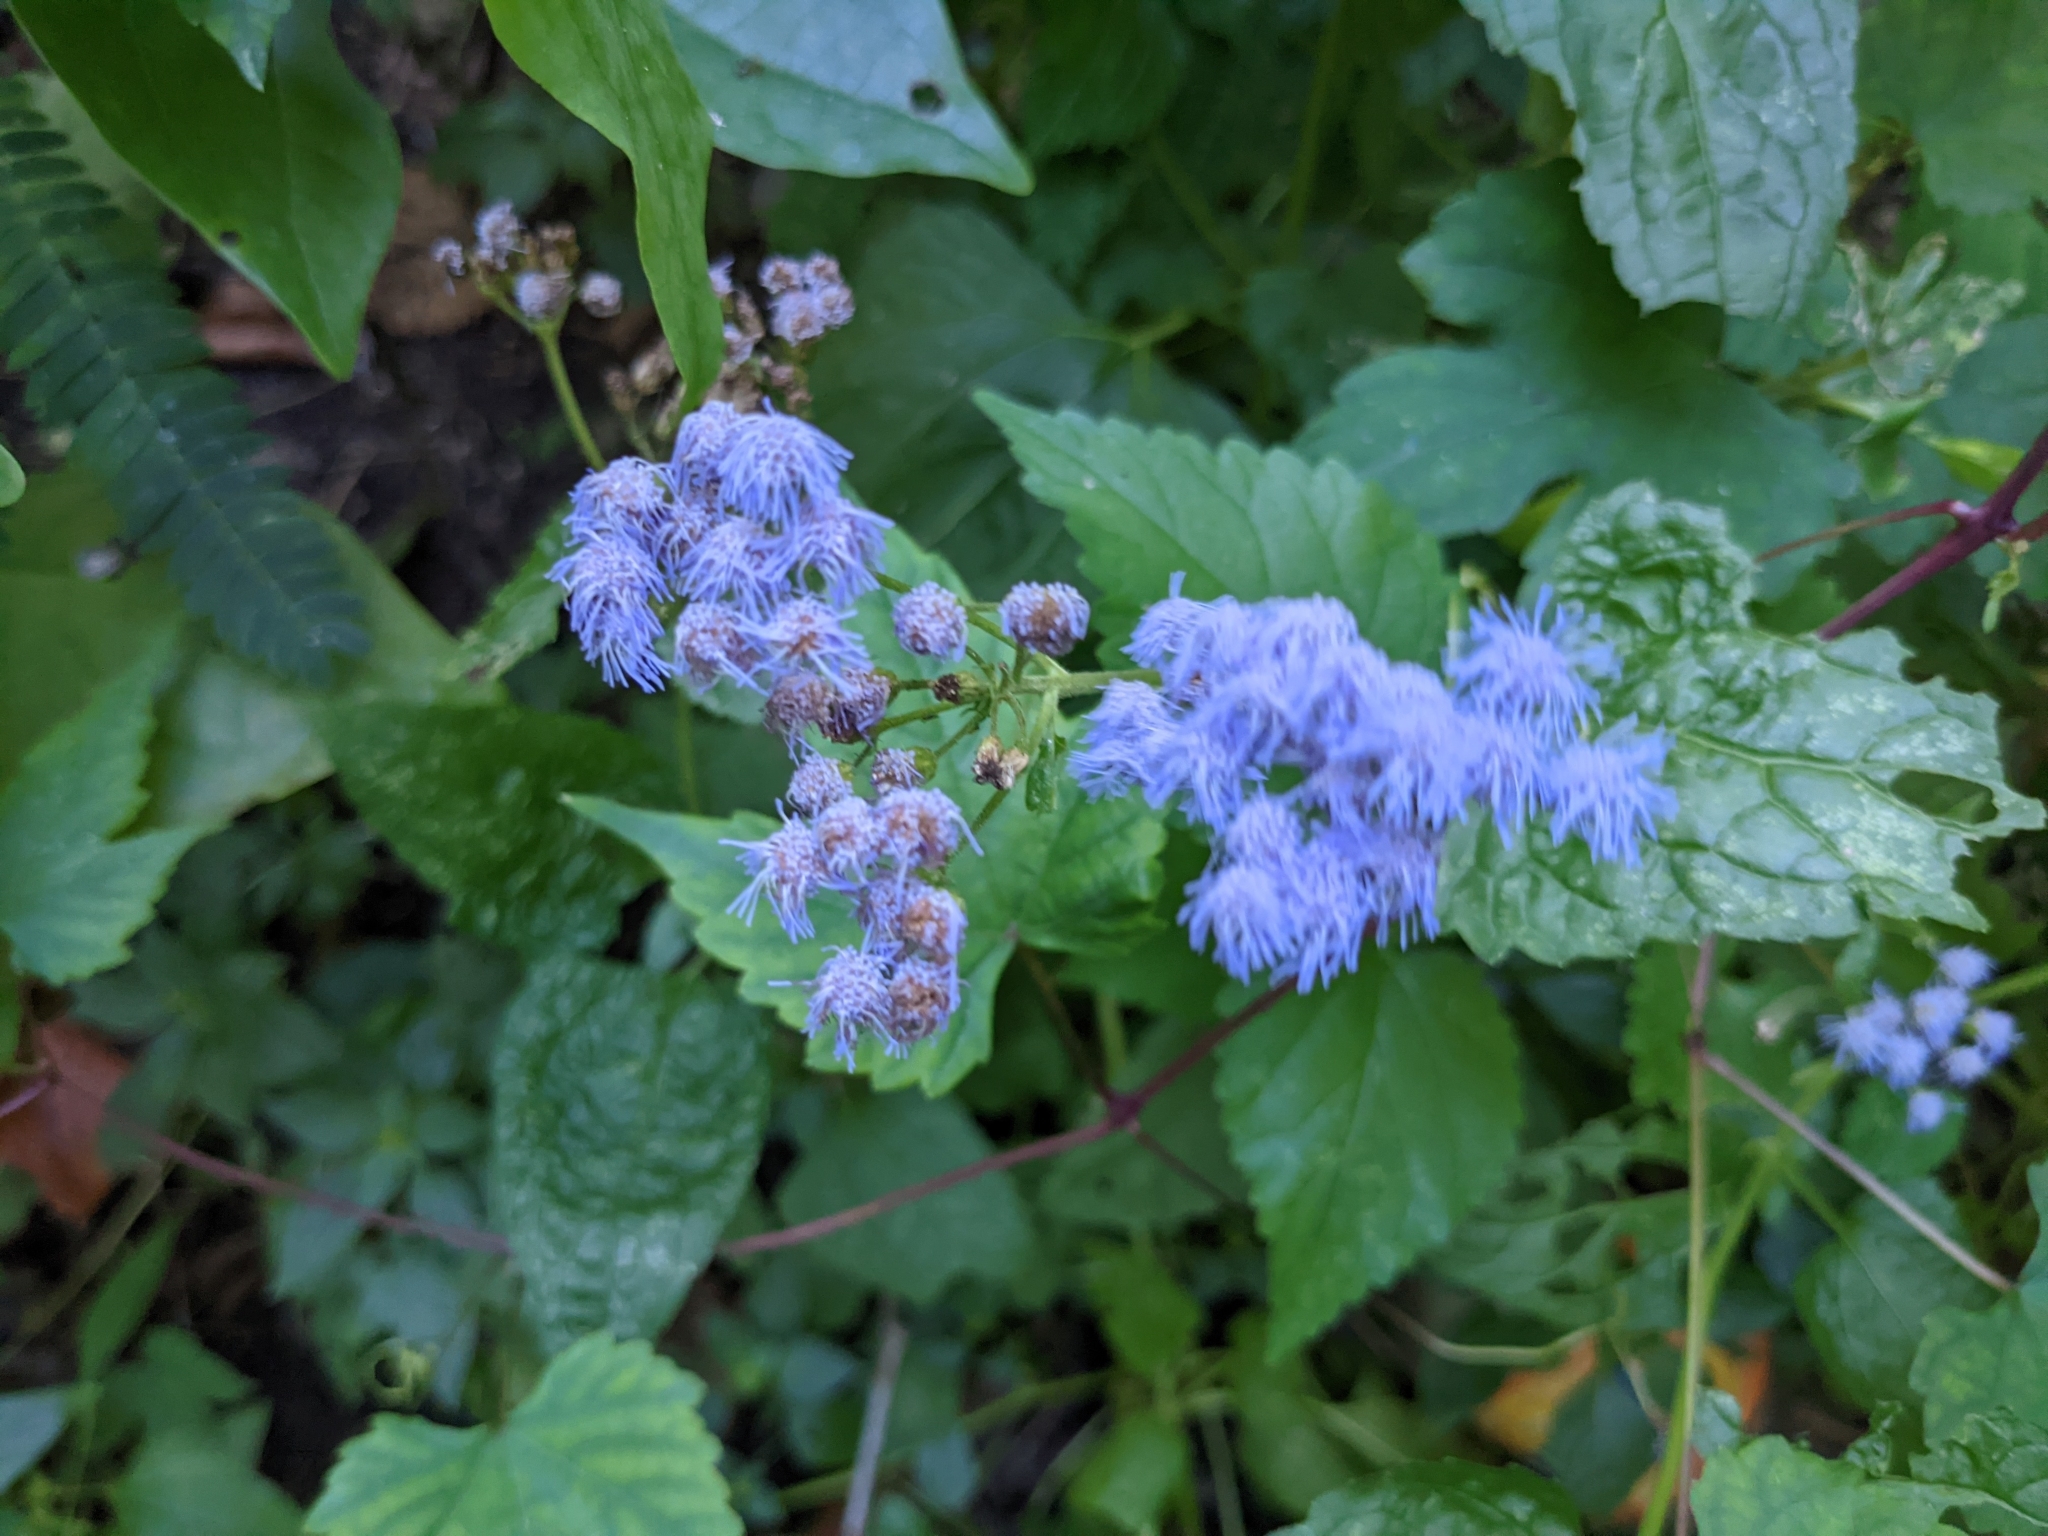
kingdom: Plantae
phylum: Tracheophyta
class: Magnoliopsida
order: Asterales
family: Asteraceae
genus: Conoclinium
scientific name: Conoclinium coelestinum
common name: Blue mistflower
